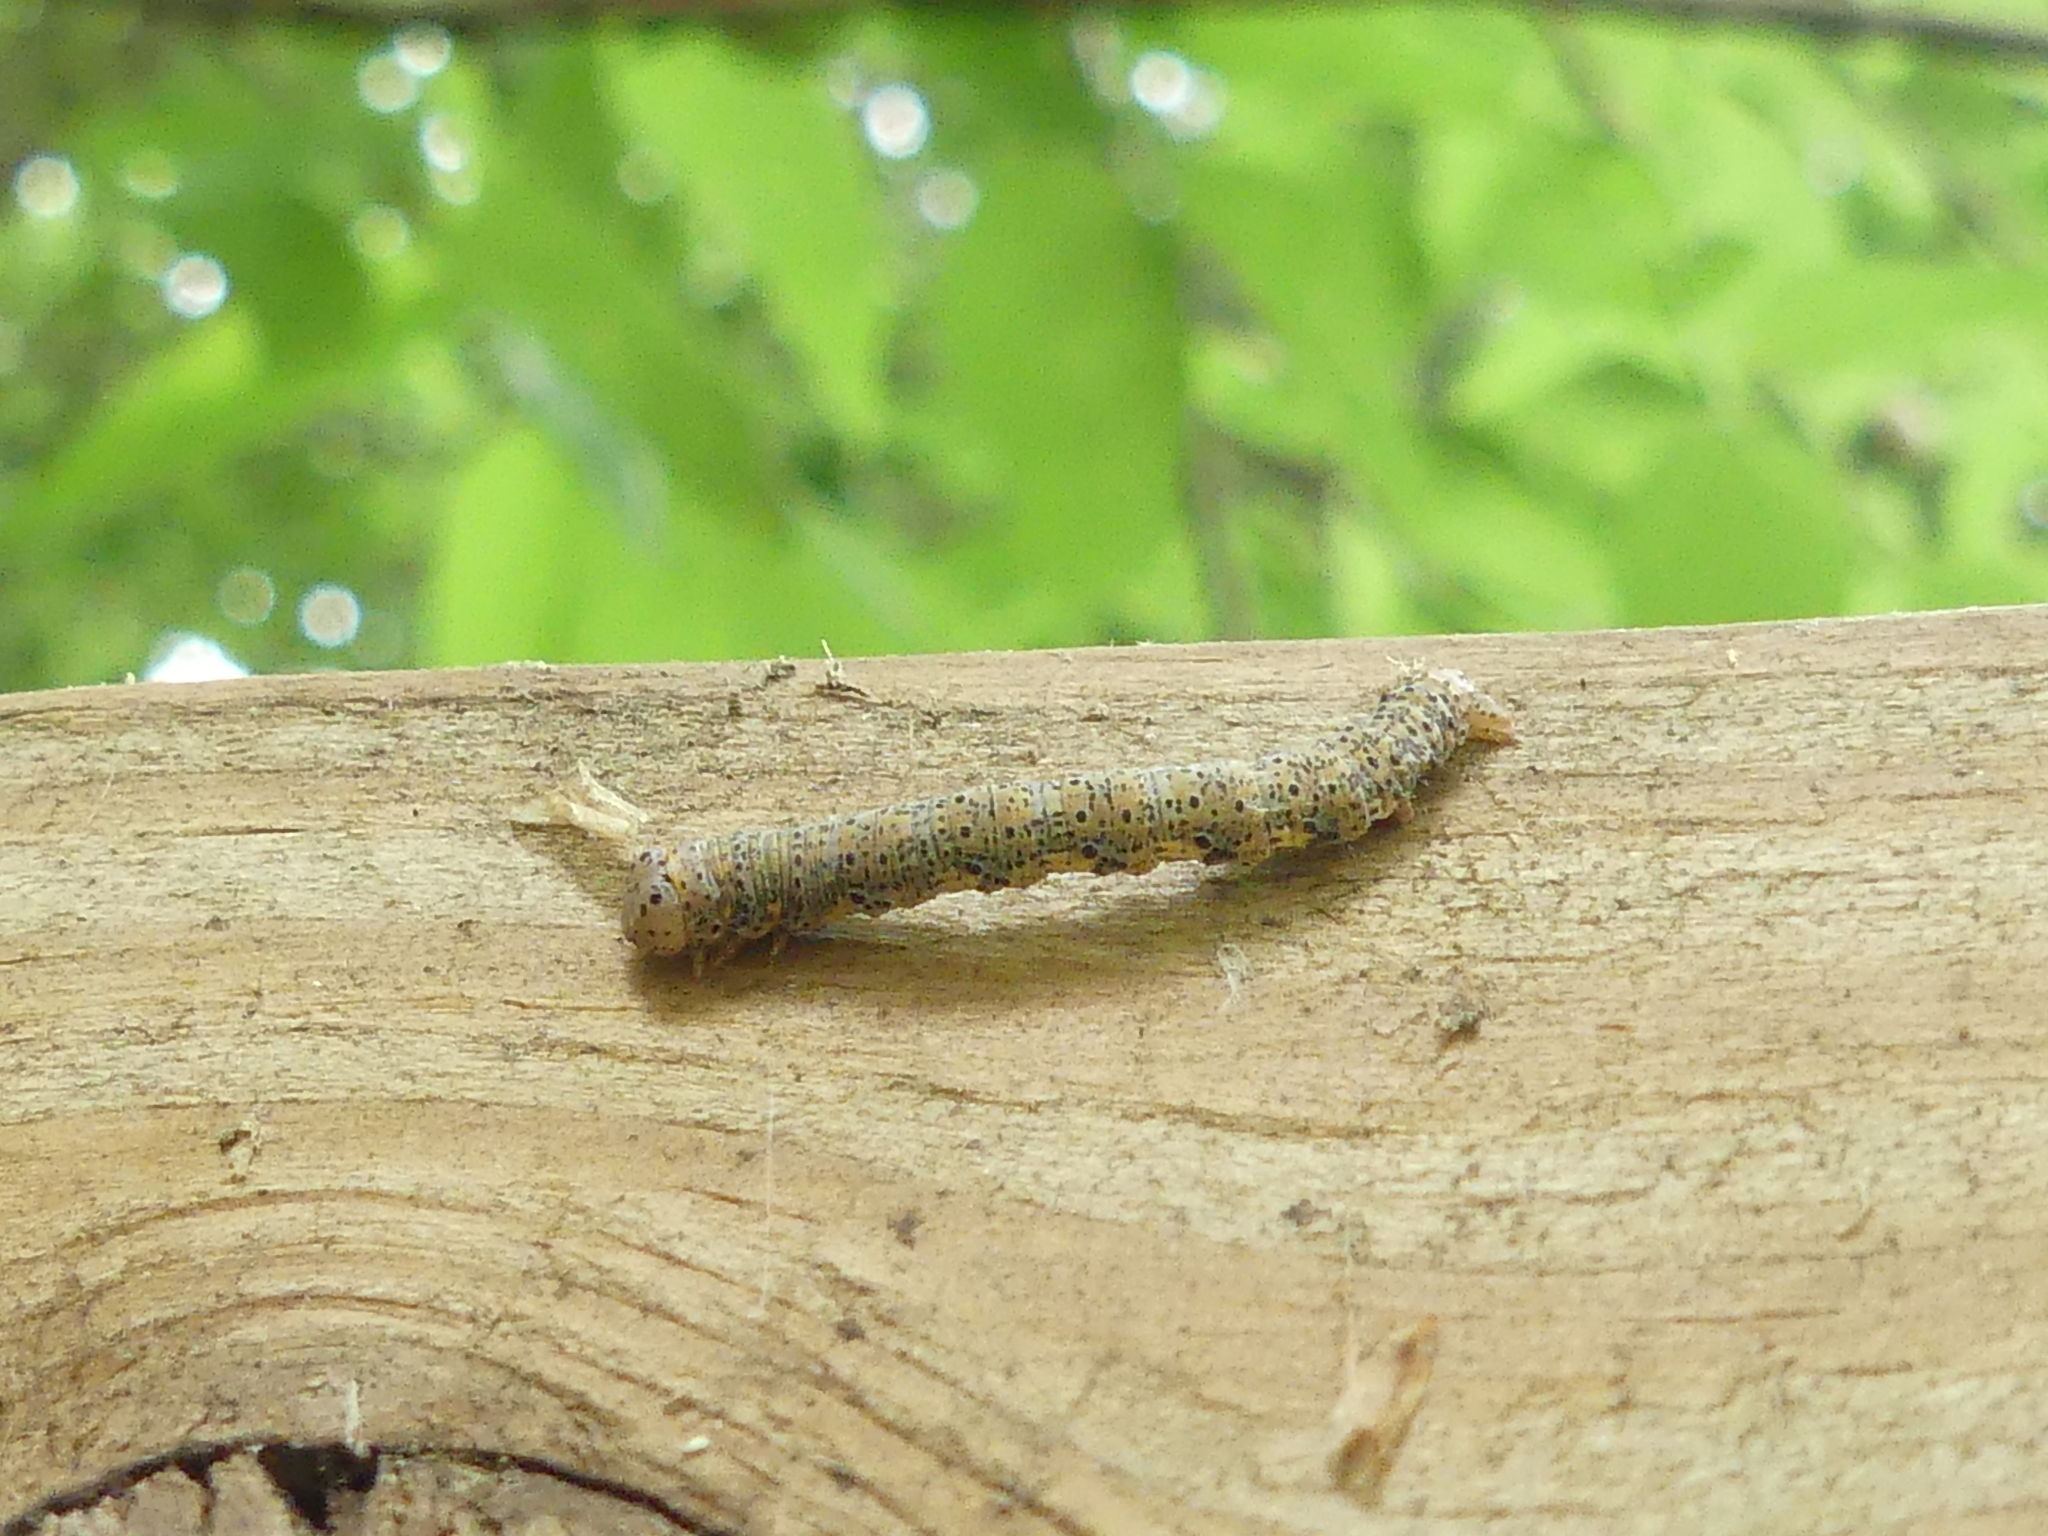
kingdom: Animalia
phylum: Arthropoda
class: Insecta
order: Lepidoptera
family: Geometridae
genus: Isturgia
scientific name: Isturgia dislocaria
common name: Pale-viened enconista
